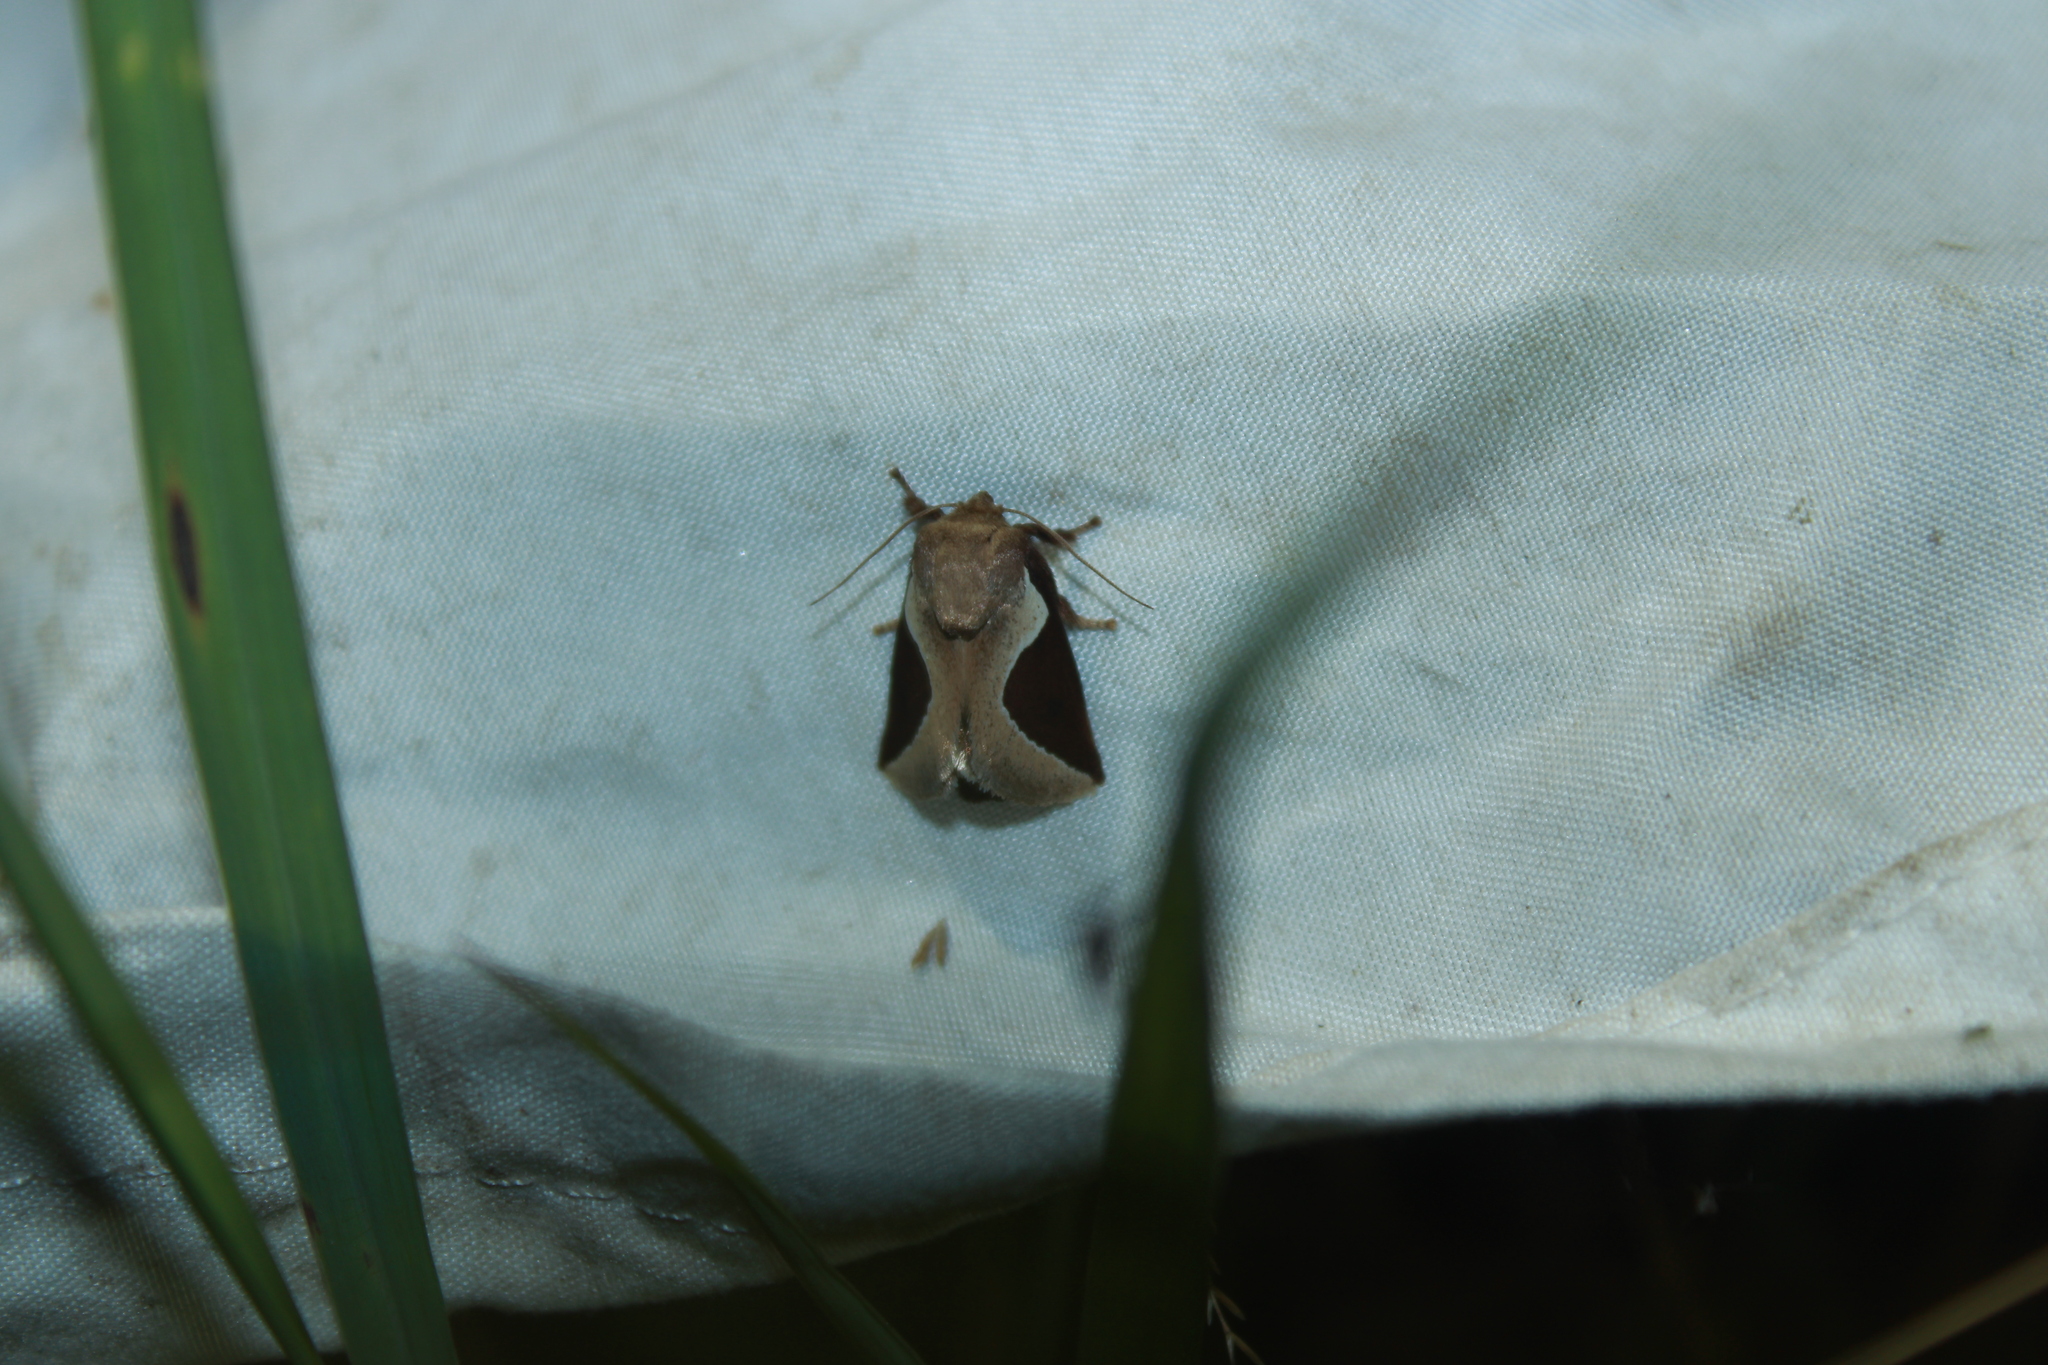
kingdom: Animalia
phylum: Arthropoda
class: Insecta
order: Lepidoptera
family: Limacodidae
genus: Prolimacodes
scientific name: Prolimacodes badia
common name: Skiff moth
